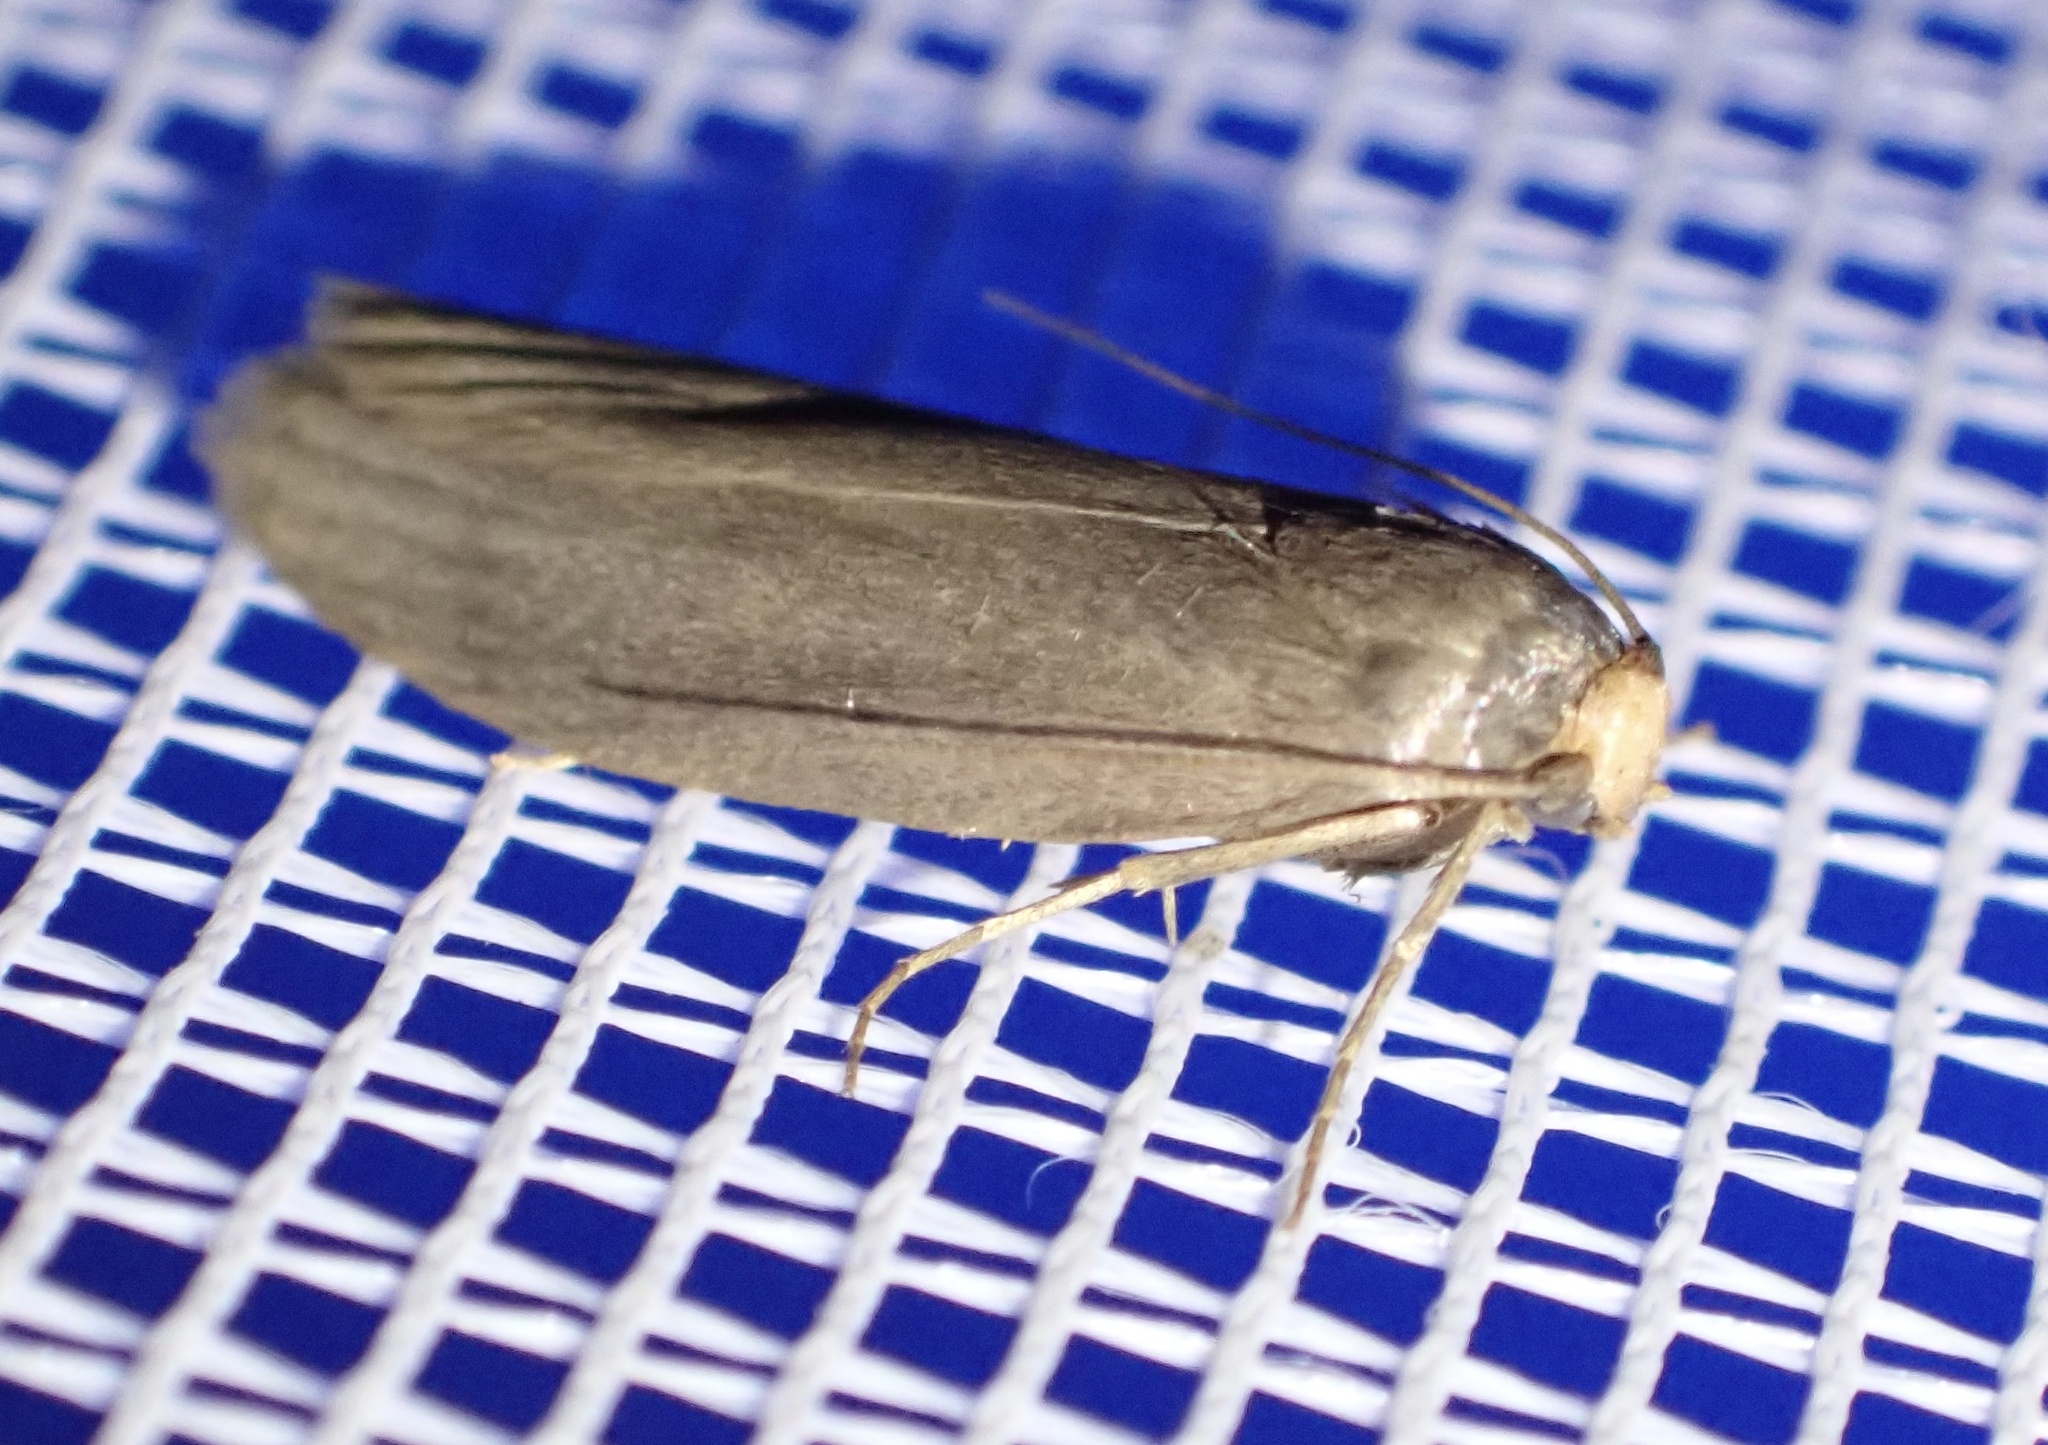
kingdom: Animalia
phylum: Arthropoda
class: Insecta
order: Lepidoptera
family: Pyralidae
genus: Achroia
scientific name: Achroia grisella
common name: Lesser wax moth
